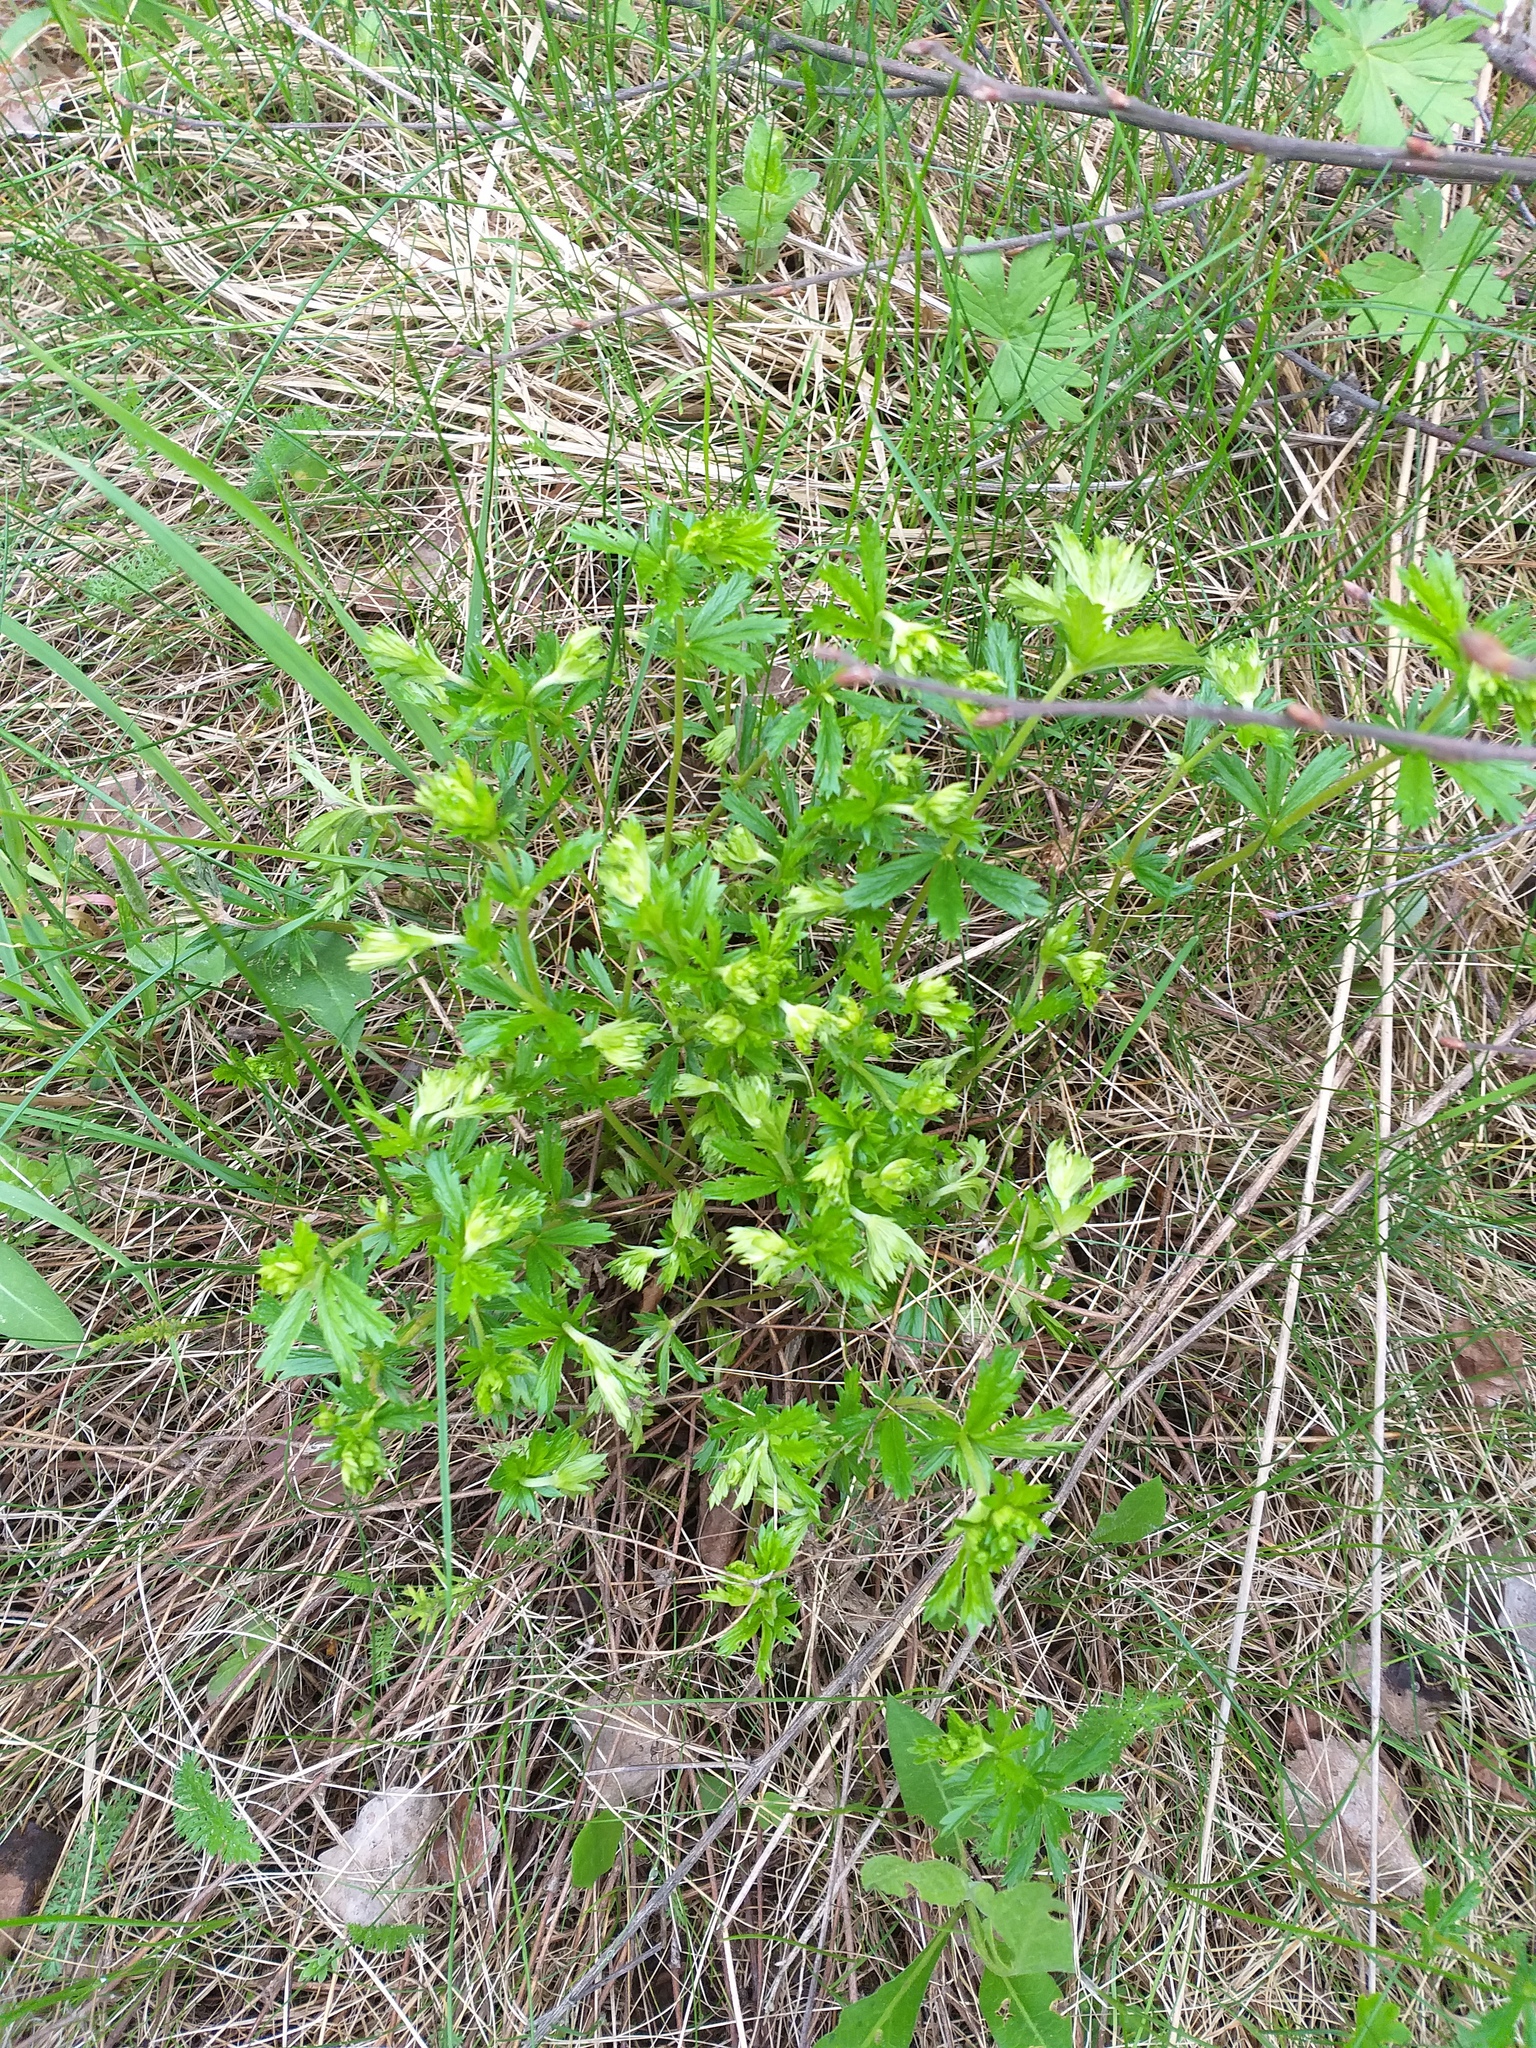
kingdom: Plantae
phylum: Tracheophyta
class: Magnoliopsida
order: Rosales
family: Rosaceae
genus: Potentilla
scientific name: Potentilla erecta
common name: Tormentil
